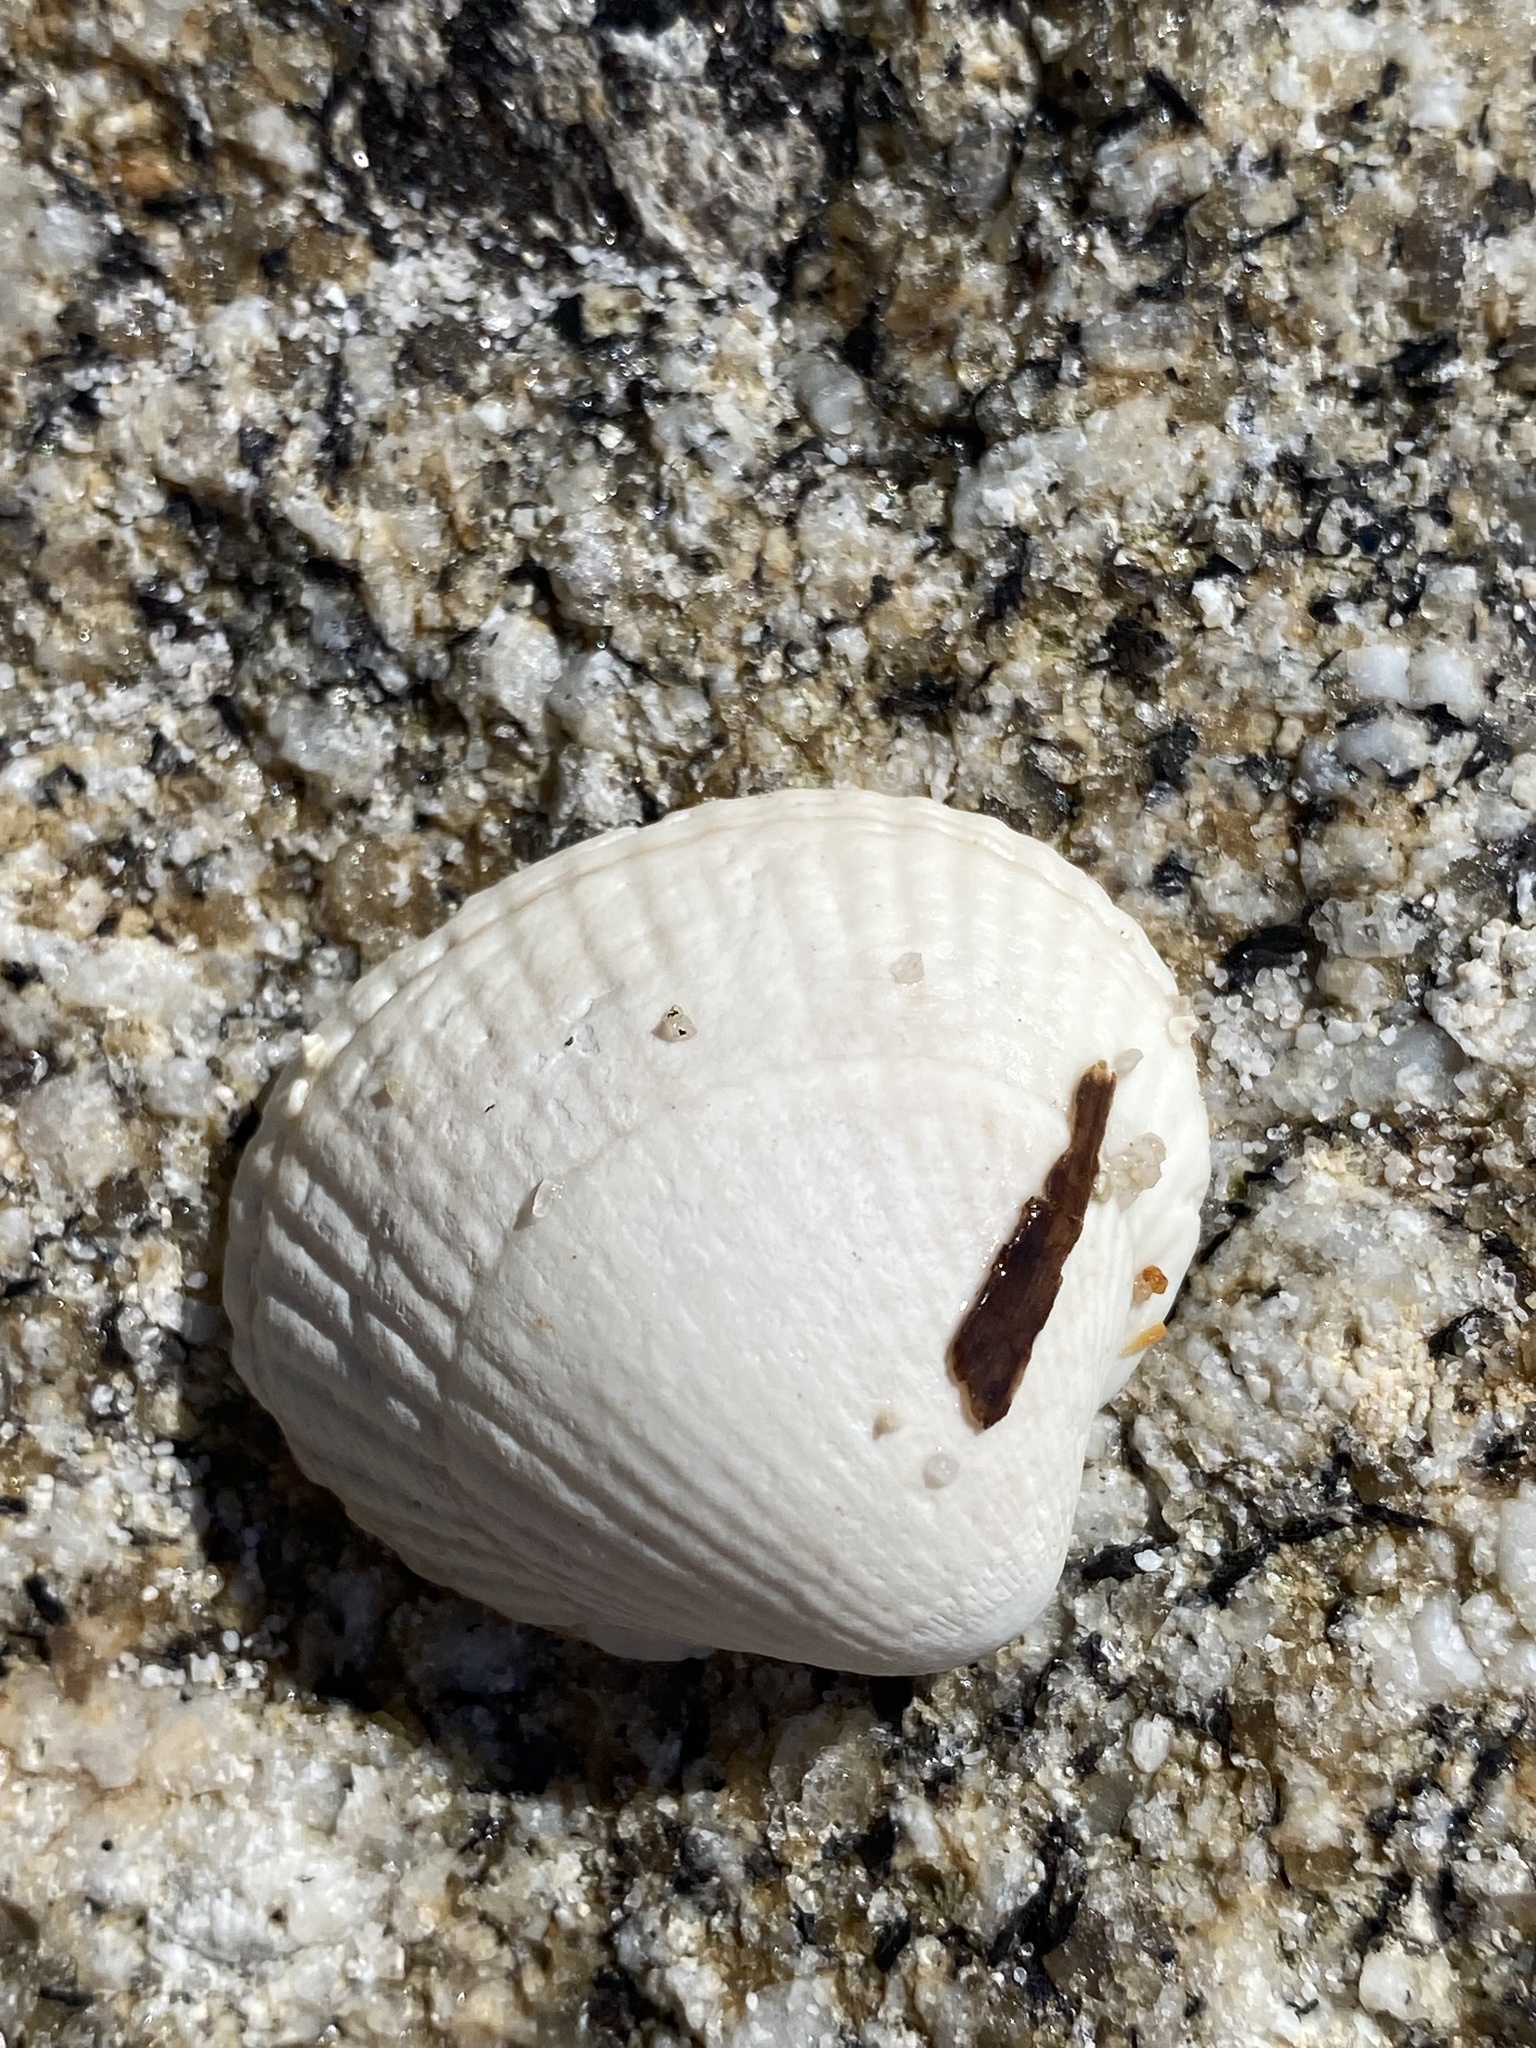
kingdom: Animalia
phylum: Mollusca
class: Bivalvia
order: Cardiida
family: Cardiidae
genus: Cerastoderma
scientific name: Cerastoderma edule
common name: Common cockle
